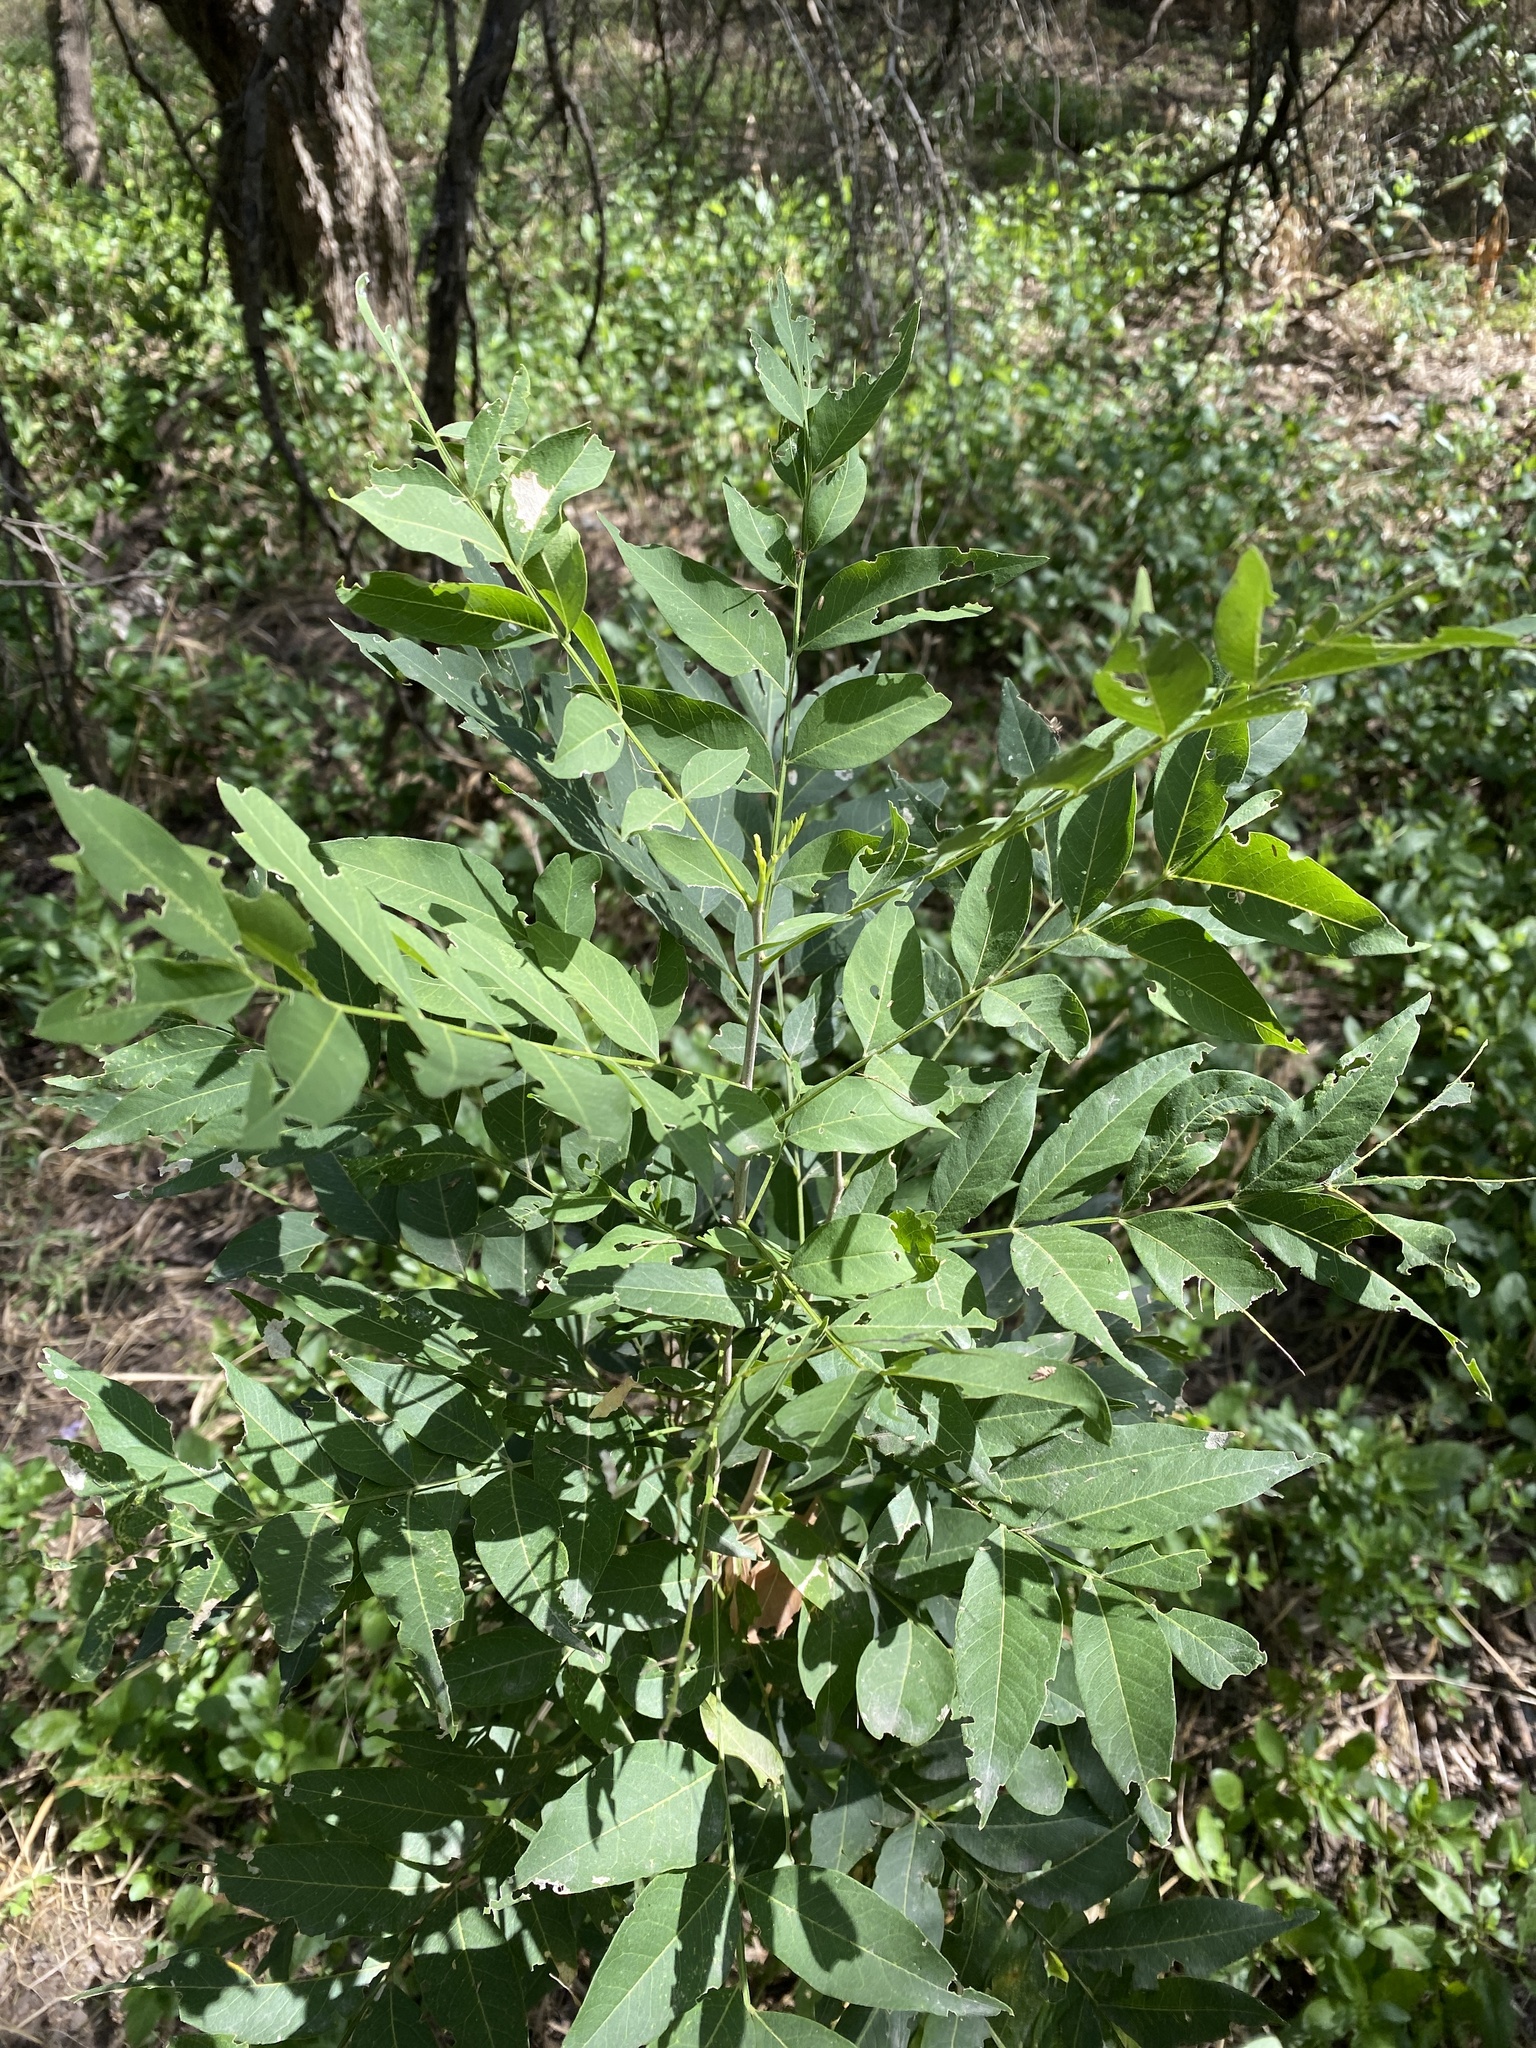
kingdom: Plantae
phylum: Tracheophyta
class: Magnoliopsida
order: Sapindales
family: Sapindaceae
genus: Sapindus
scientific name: Sapindus drummondii
